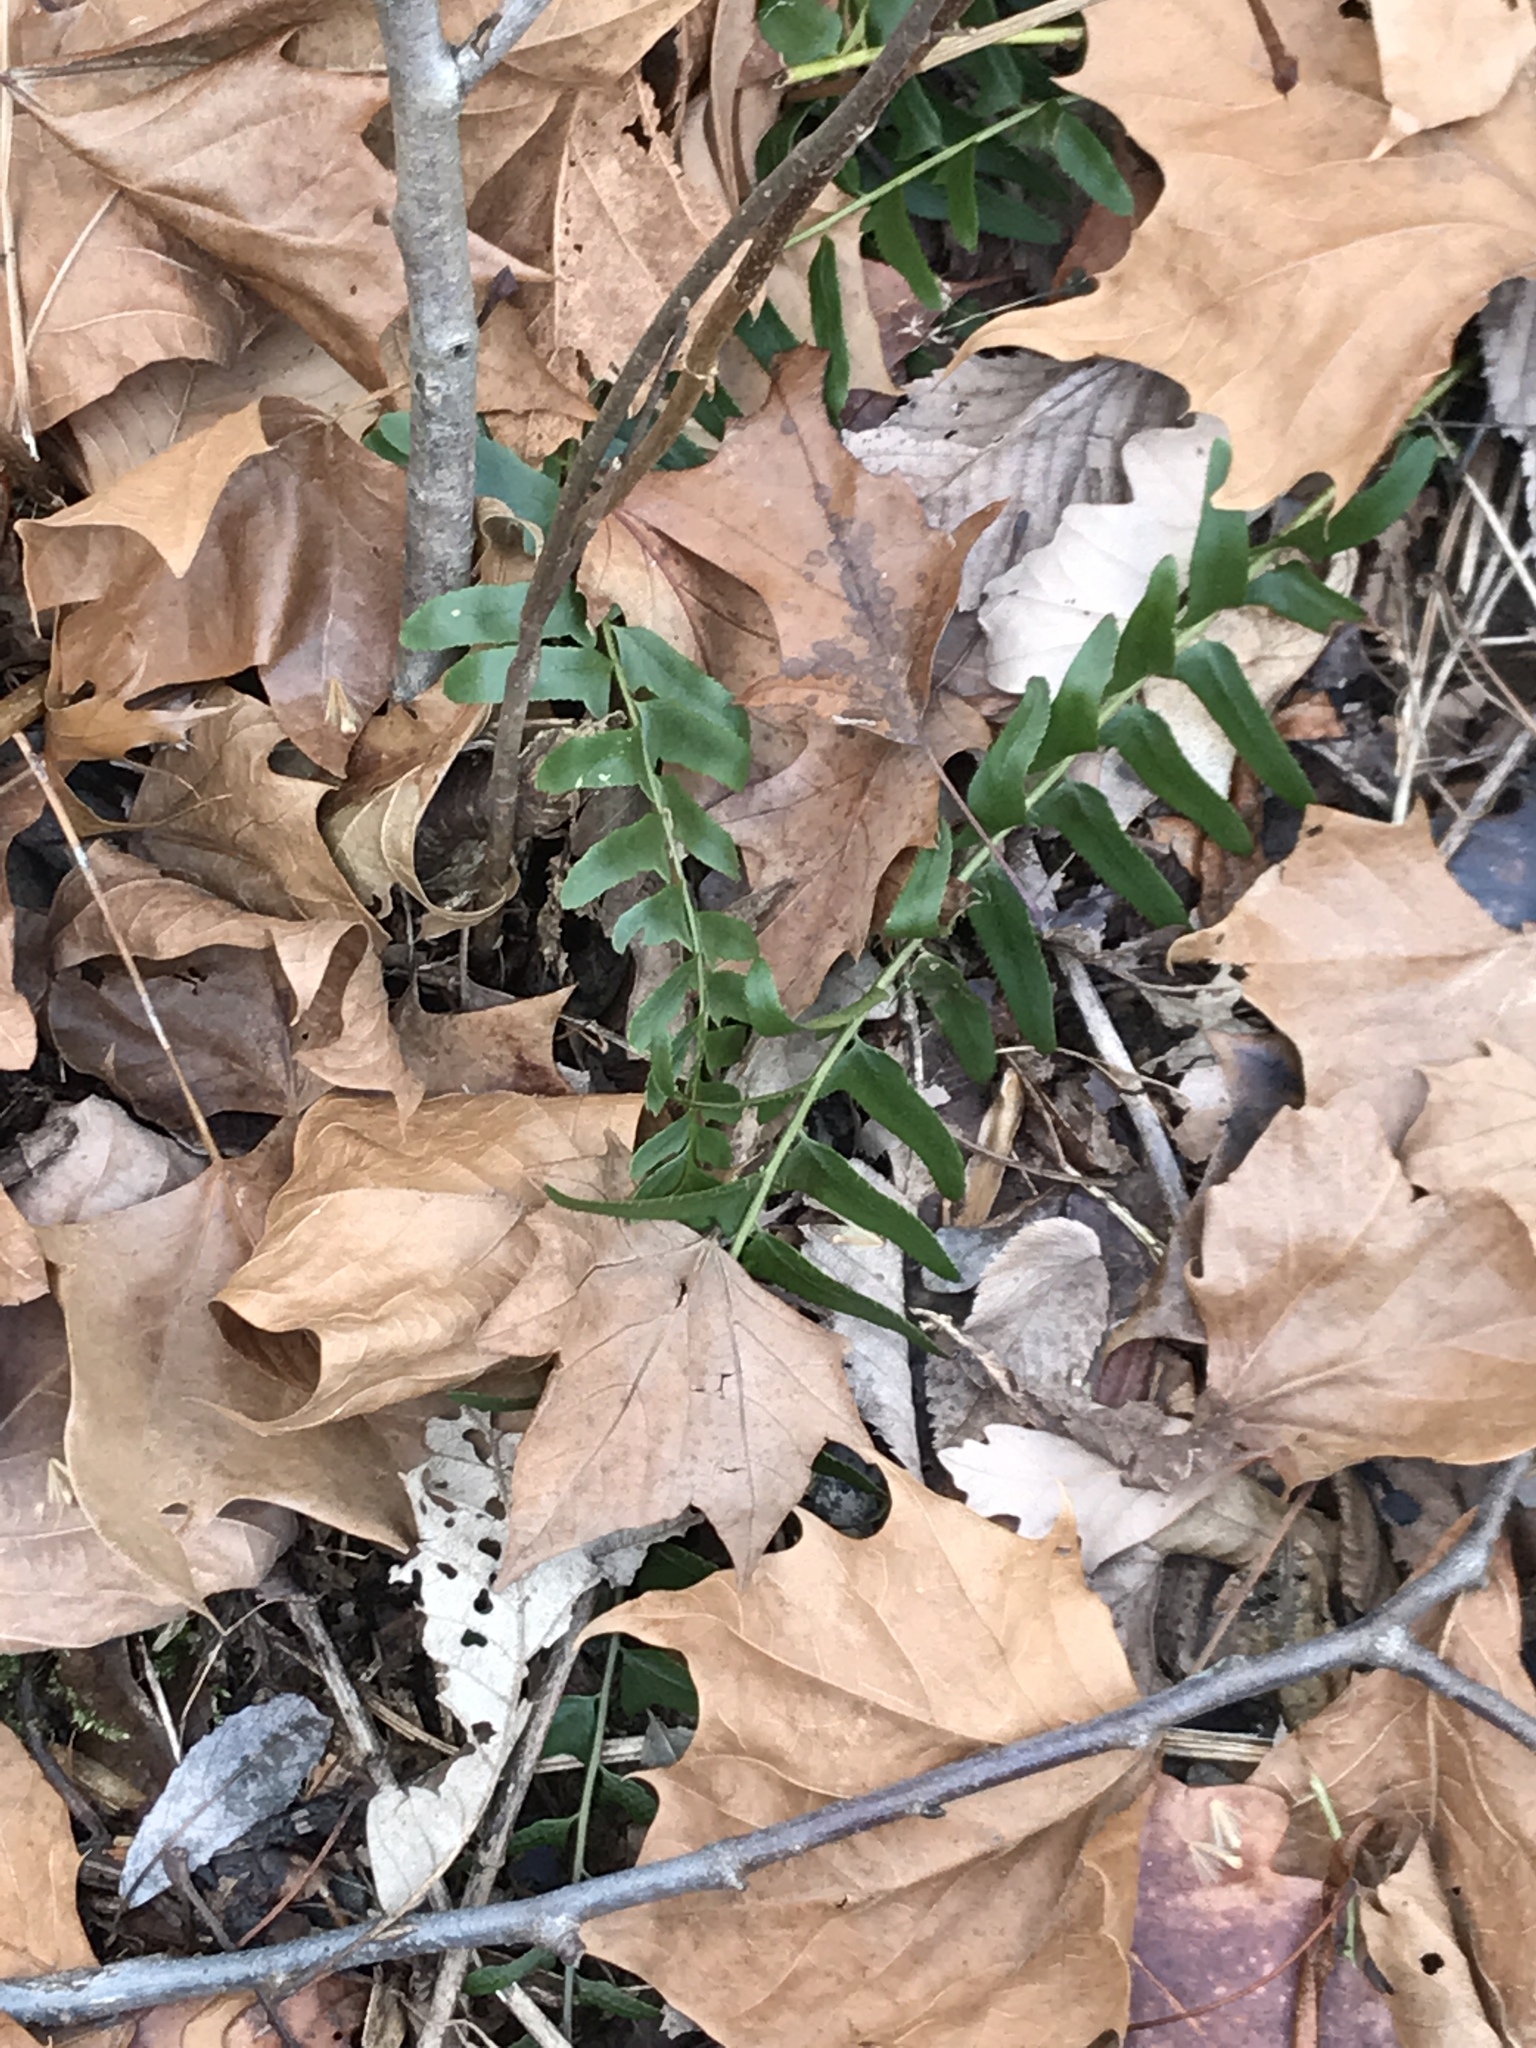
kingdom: Plantae
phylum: Tracheophyta
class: Polypodiopsida
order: Polypodiales
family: Dryopteridaceae
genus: Polystichum
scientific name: Polystichum acrostichoides
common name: Christmas fern
